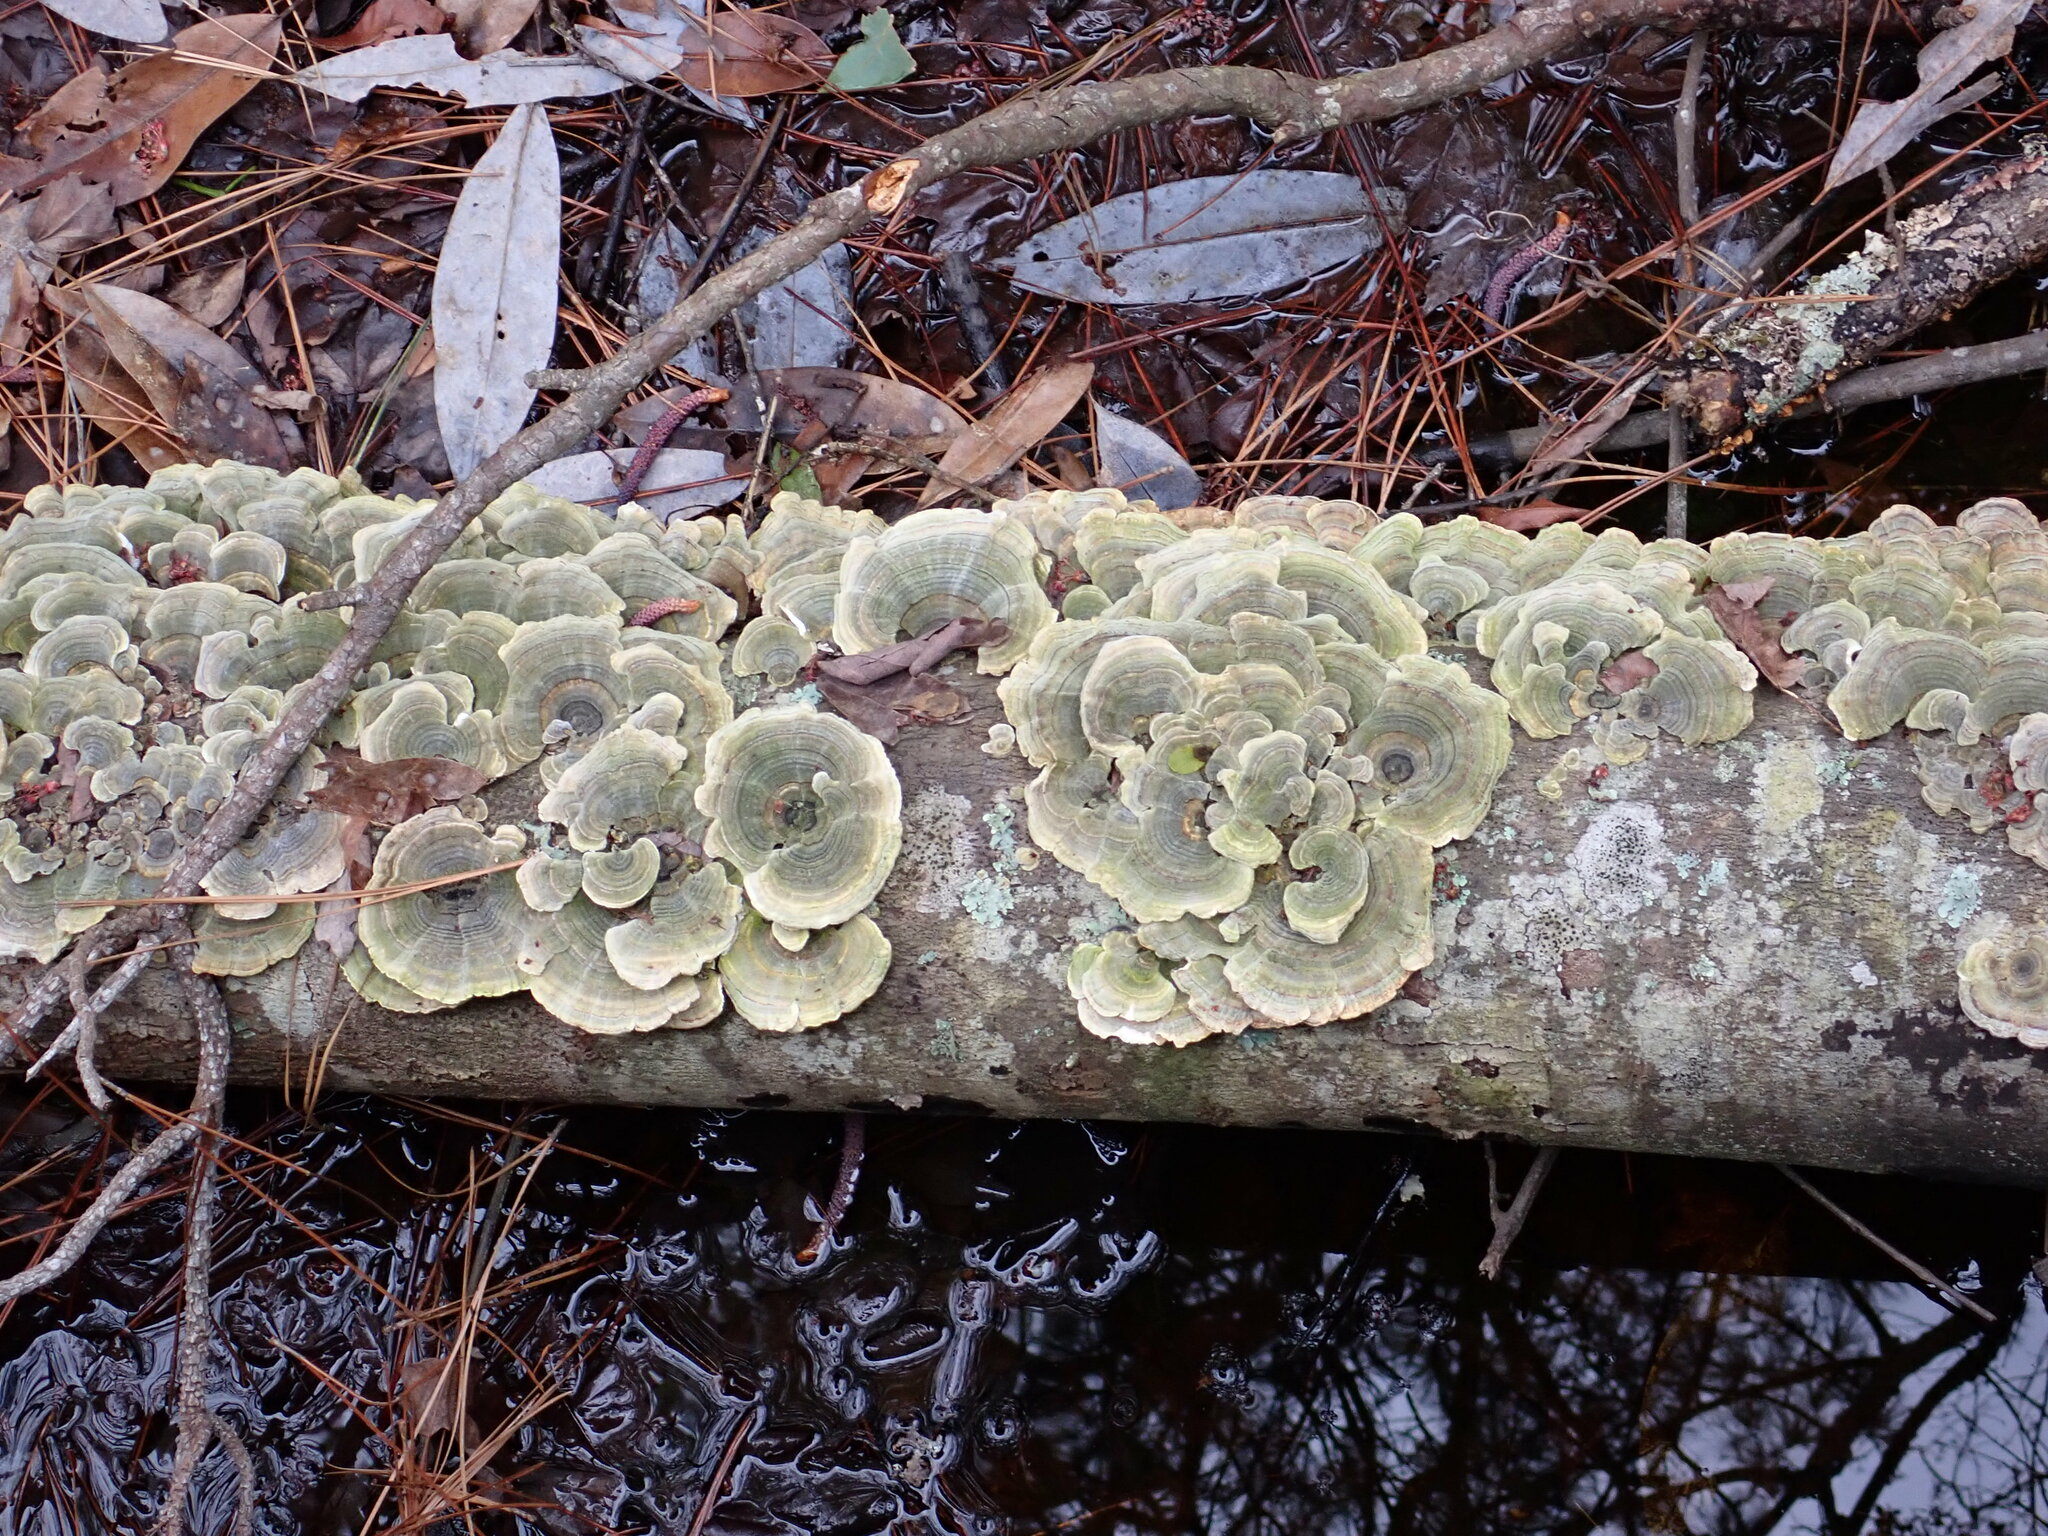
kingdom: Fungi
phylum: Basidiomycota
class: Agaricomycetes
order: Polyporales
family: Polyporaceae
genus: Trametes
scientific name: Trametes versicolor
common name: Turkeytail
